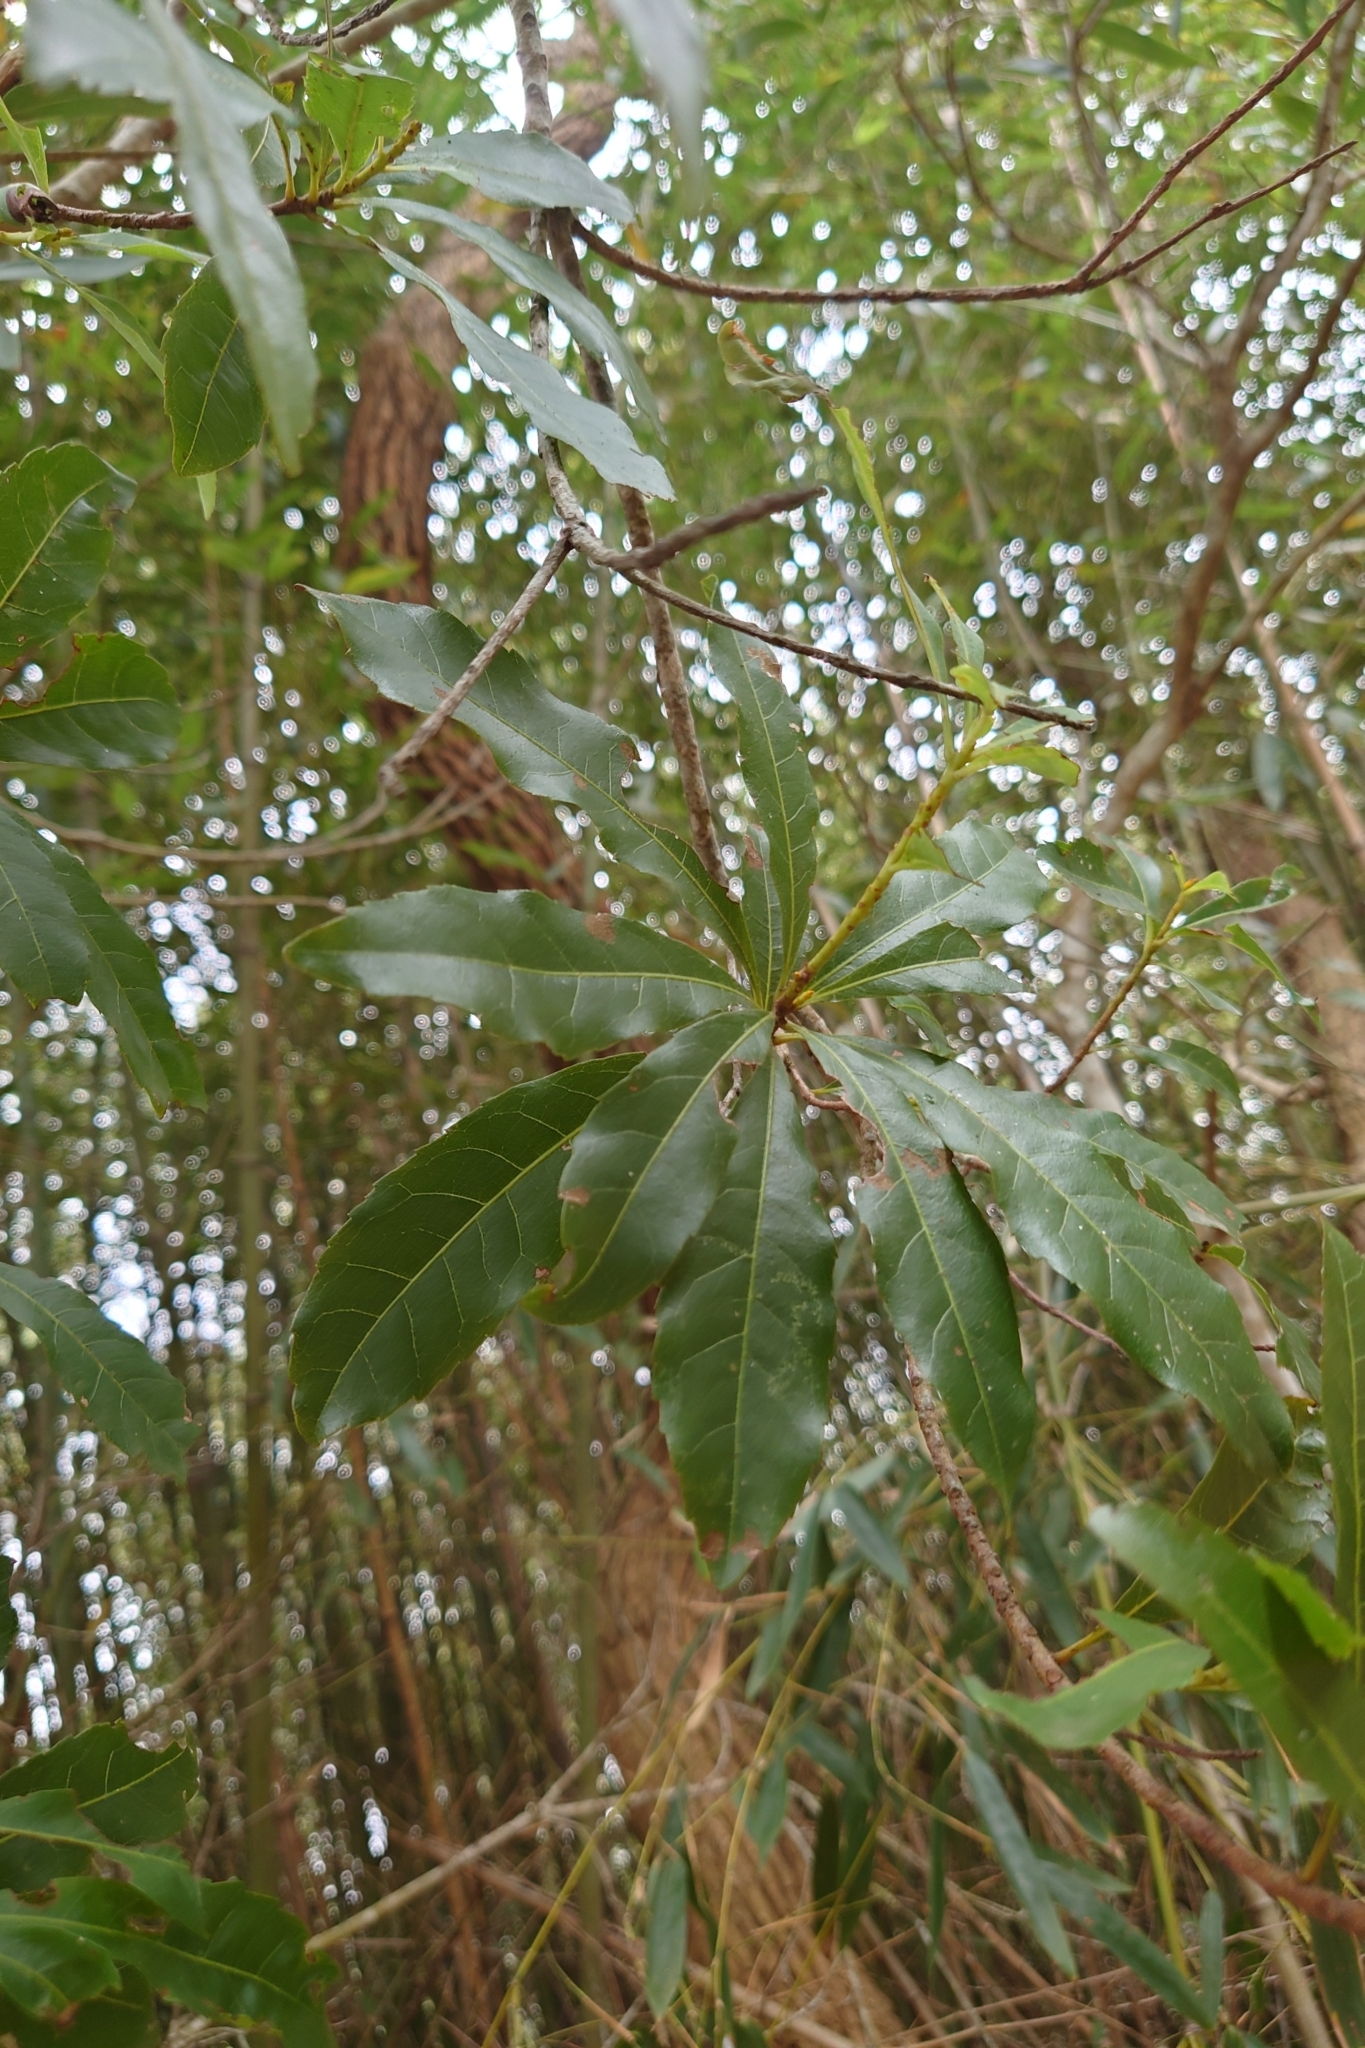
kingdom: Plantae
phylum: Tracheophyta
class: Magnoliopsida
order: Fagales
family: Myricaceae
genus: Morella
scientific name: Morella rubra
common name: Red bayberry
